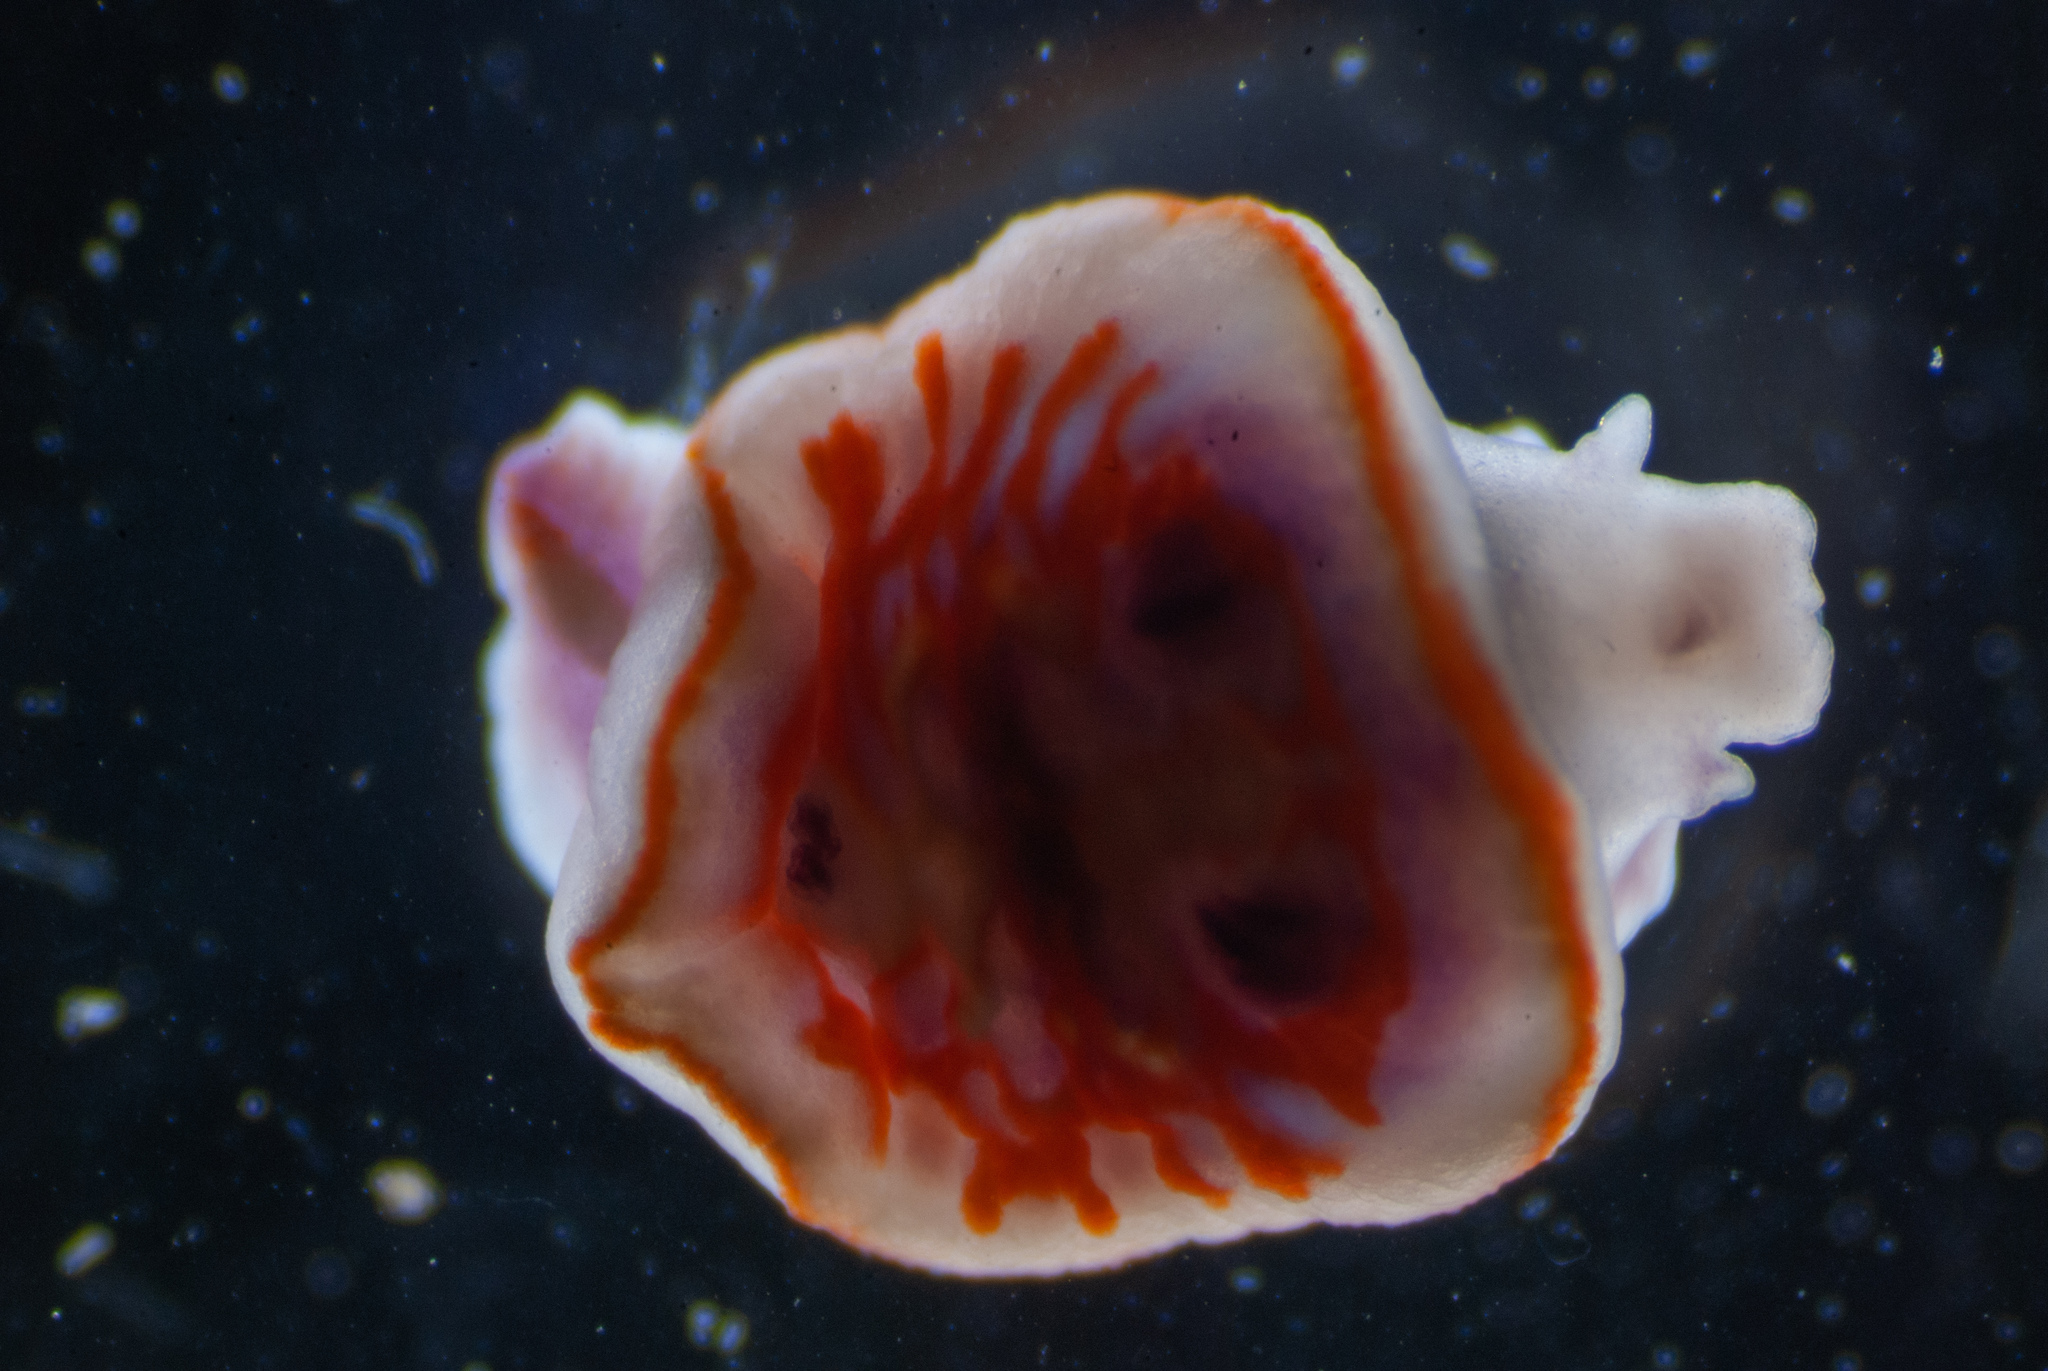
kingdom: Animalia
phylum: Mollusca
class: Gastropoda
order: Nudibranchia
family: Chromodorididae
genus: Felimida
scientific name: Felimida clenchi
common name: Bill clench's doris
